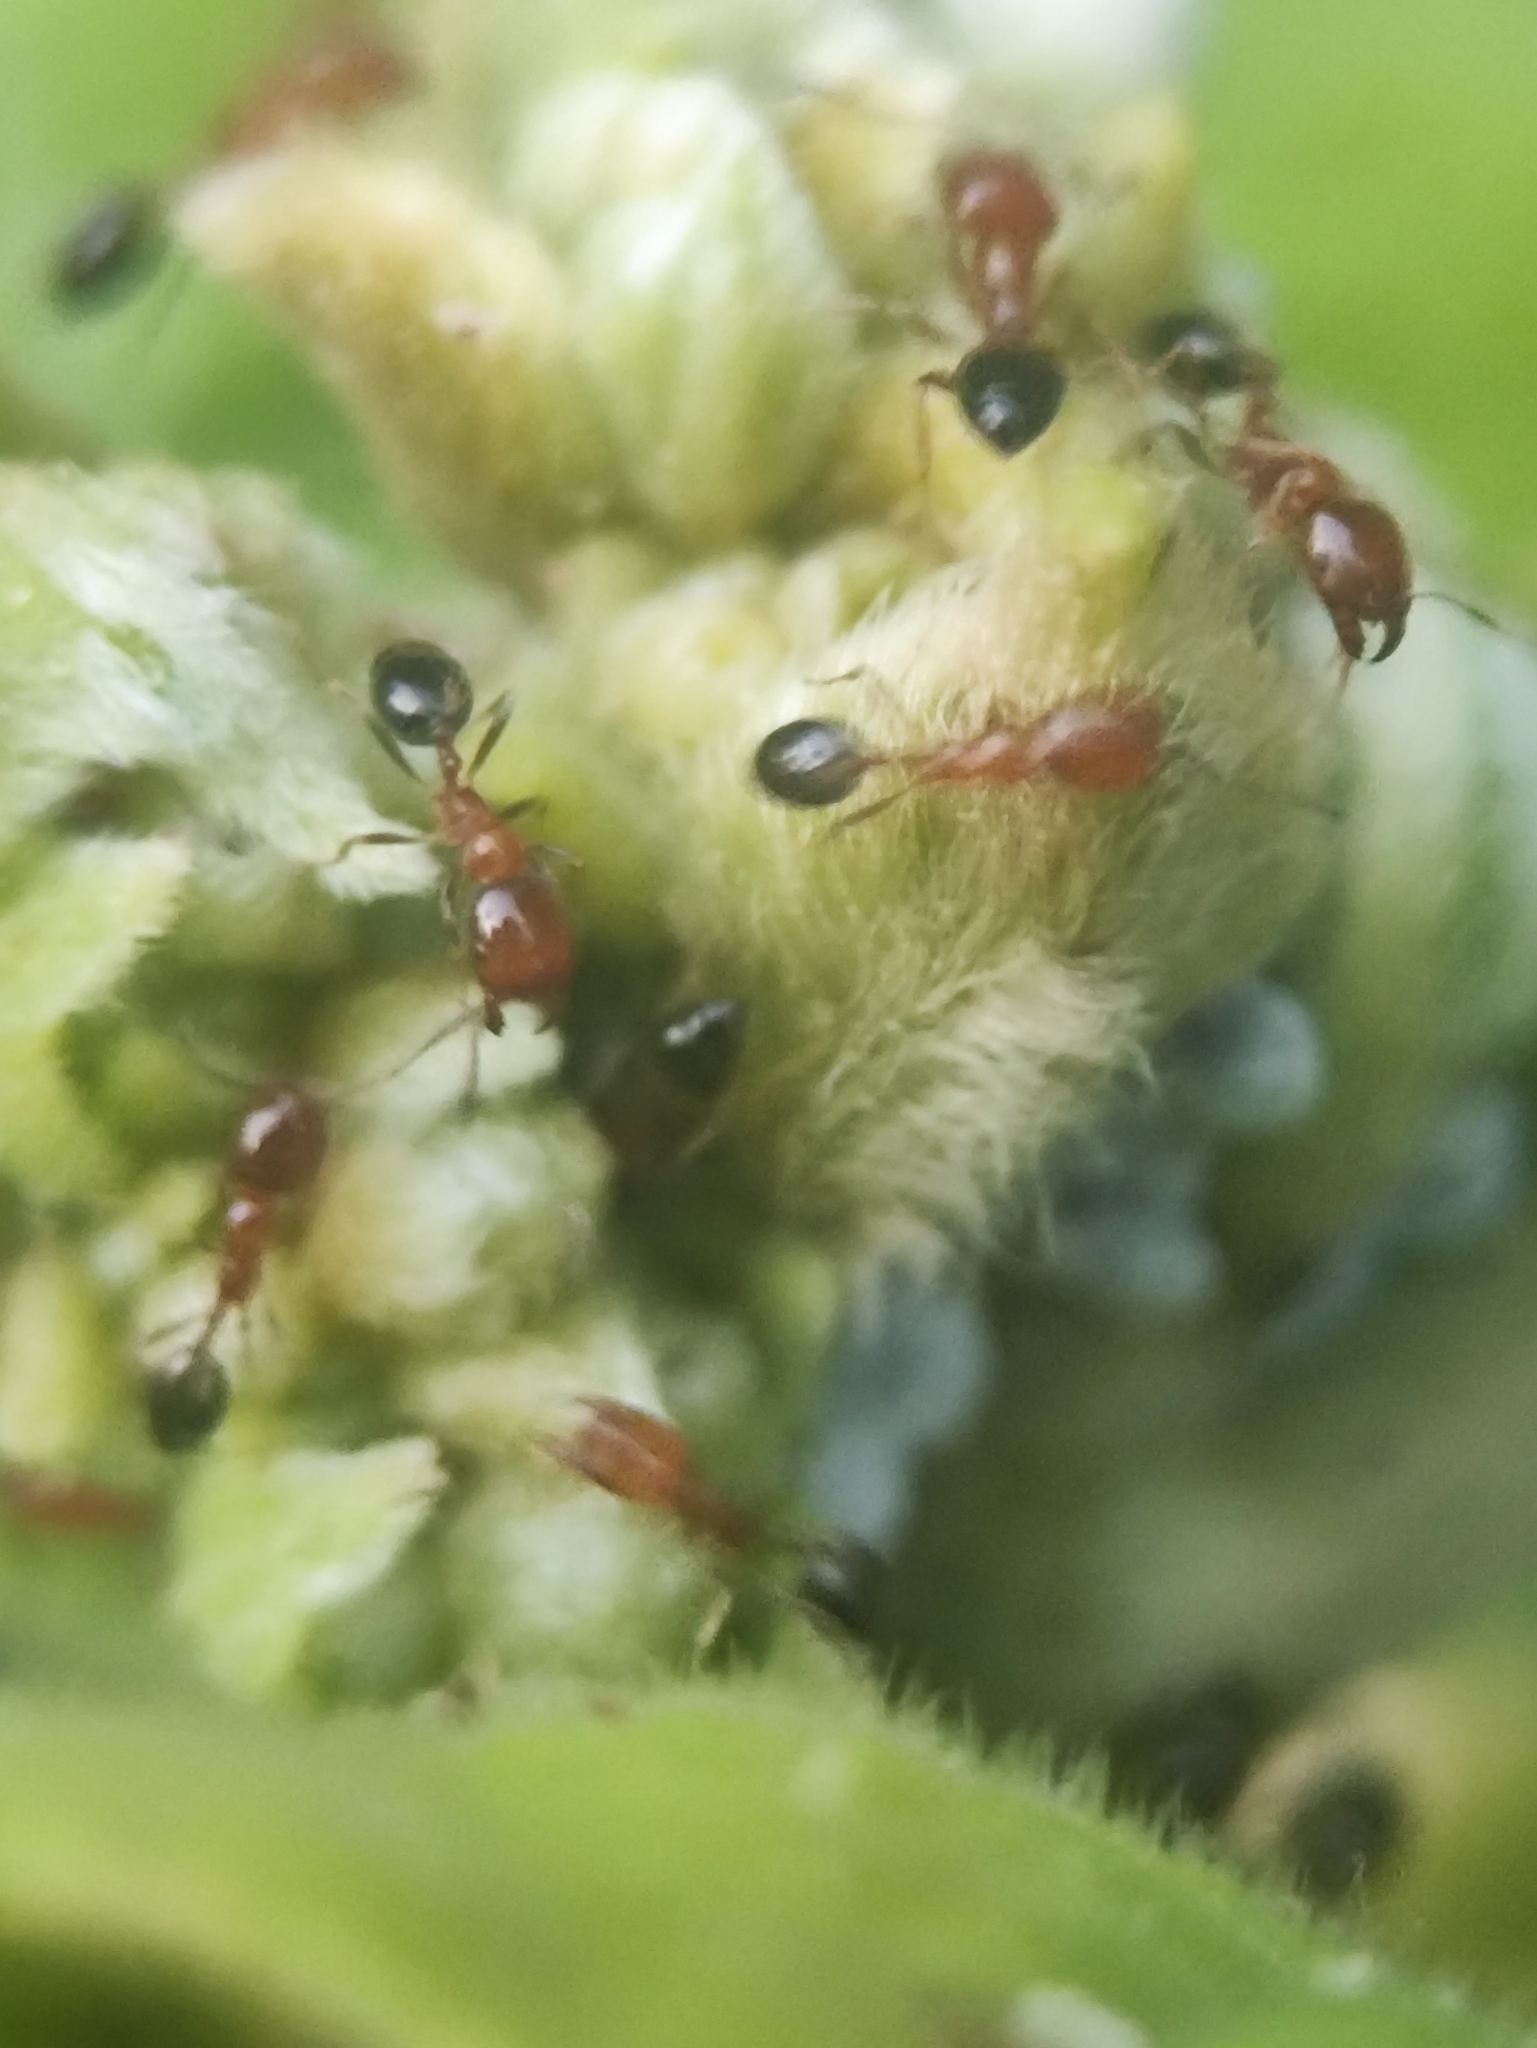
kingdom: Animalia
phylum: Arthropoda
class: Insecta
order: Hymenoptera
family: Formicidae
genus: Monomorium
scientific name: Monomorium destructor
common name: Destructive trailing ant
